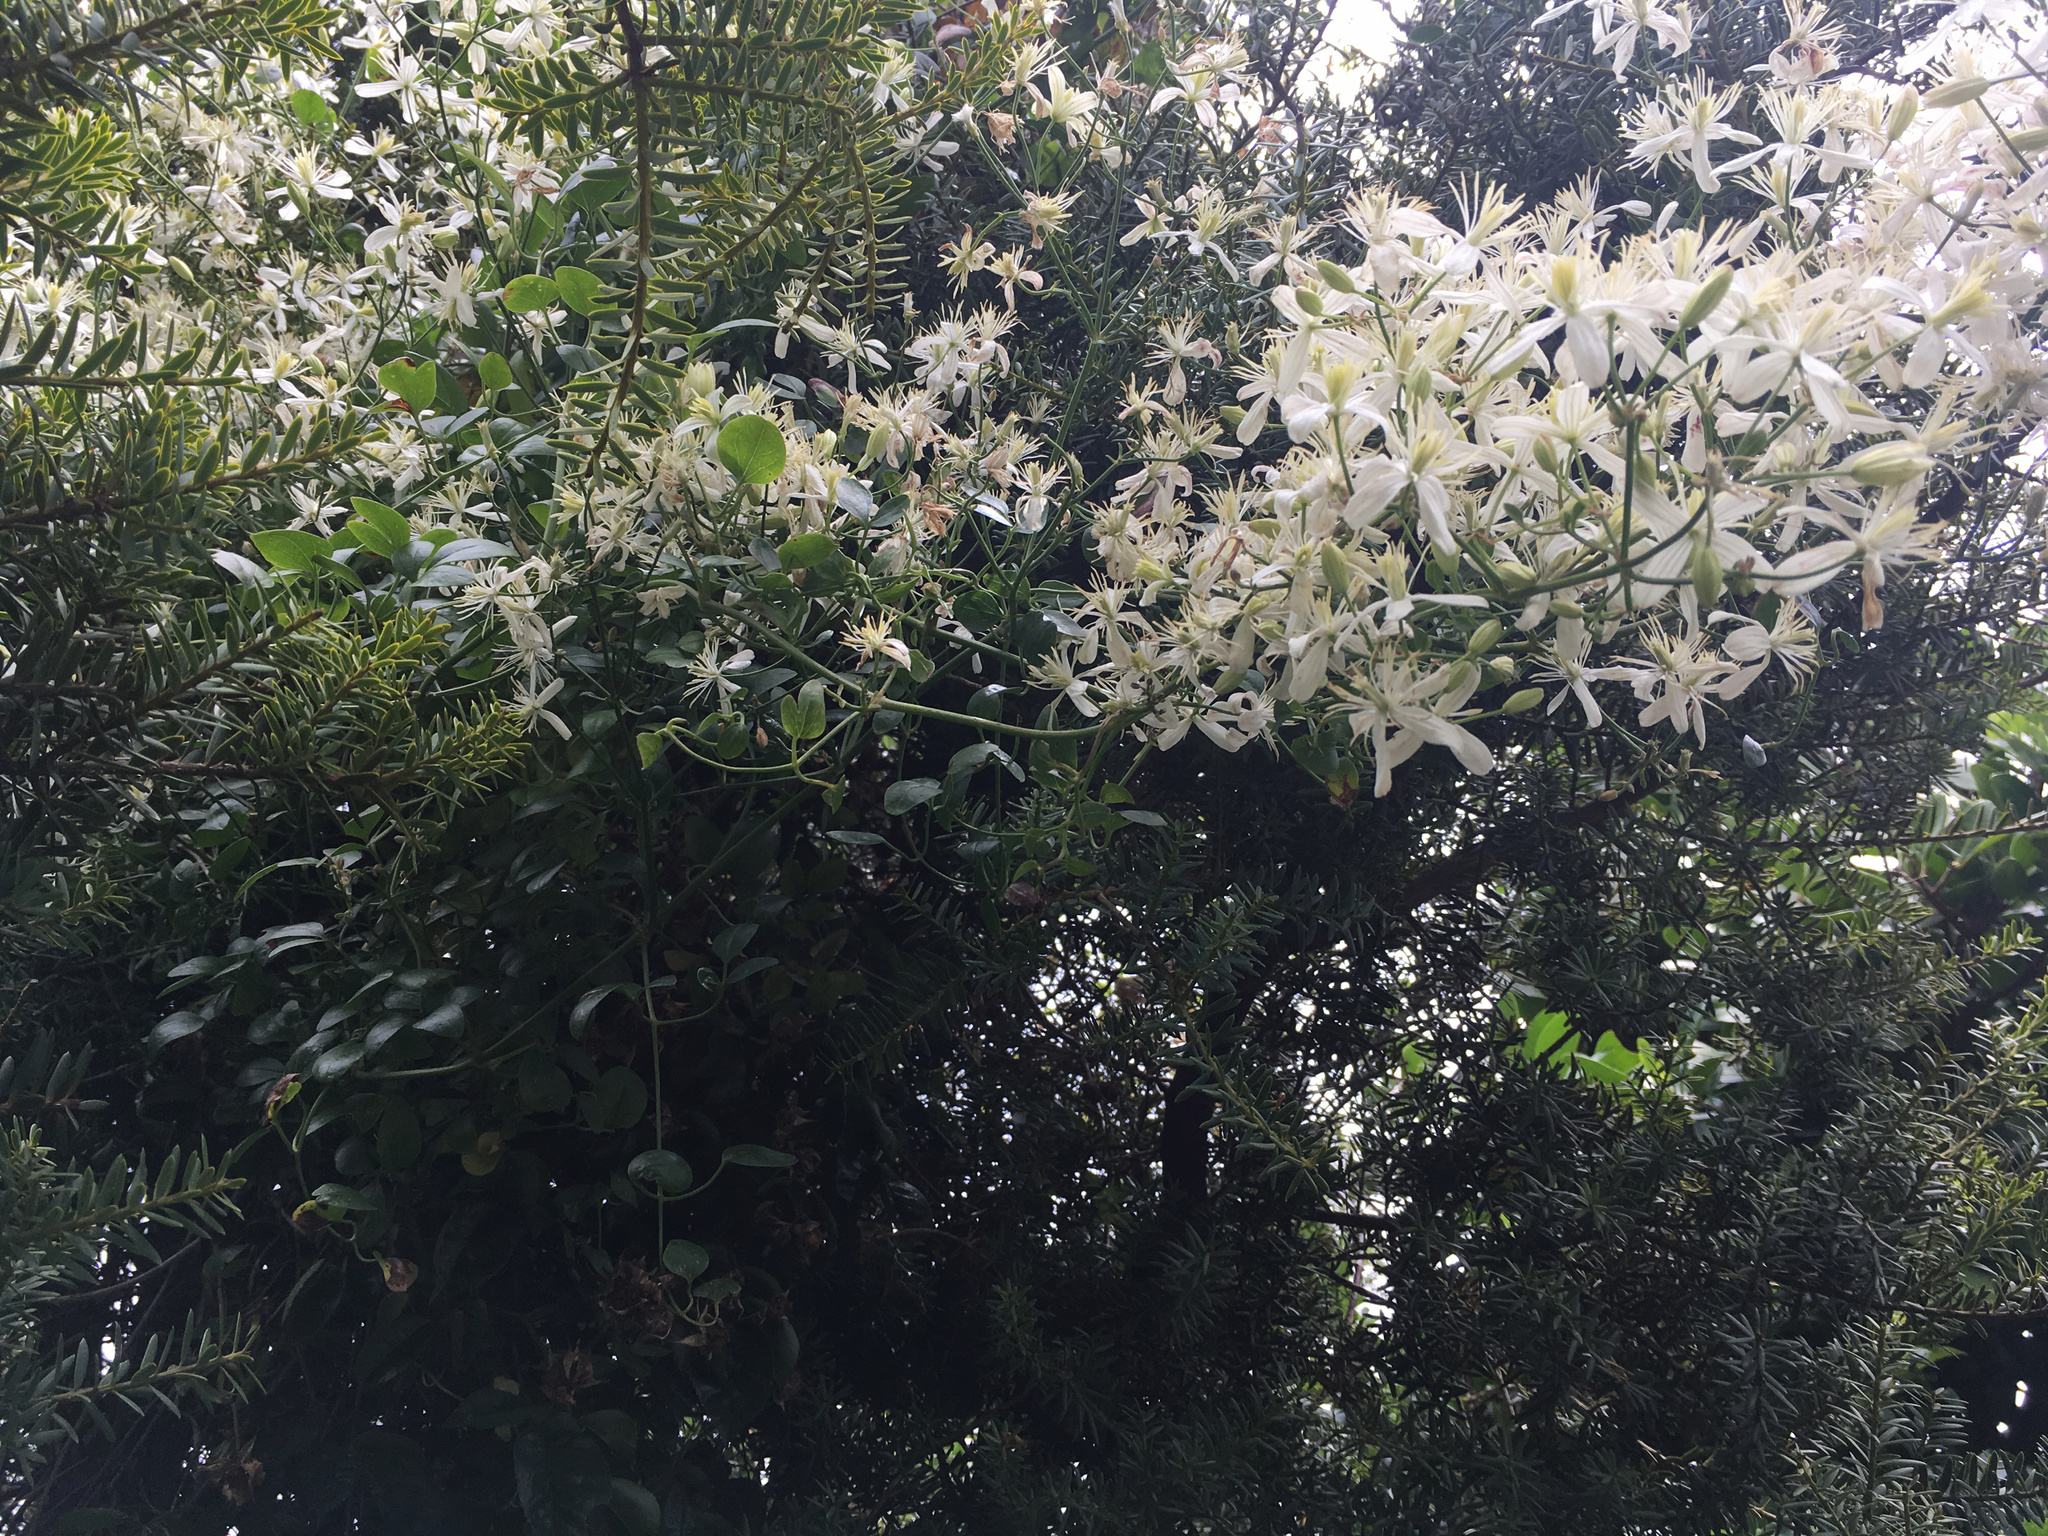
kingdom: Plantae
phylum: Tracheophyta
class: Magnoliopsida
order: Ranunculales
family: Ranunculaceae
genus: Clematis
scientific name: Clematis paniculata
